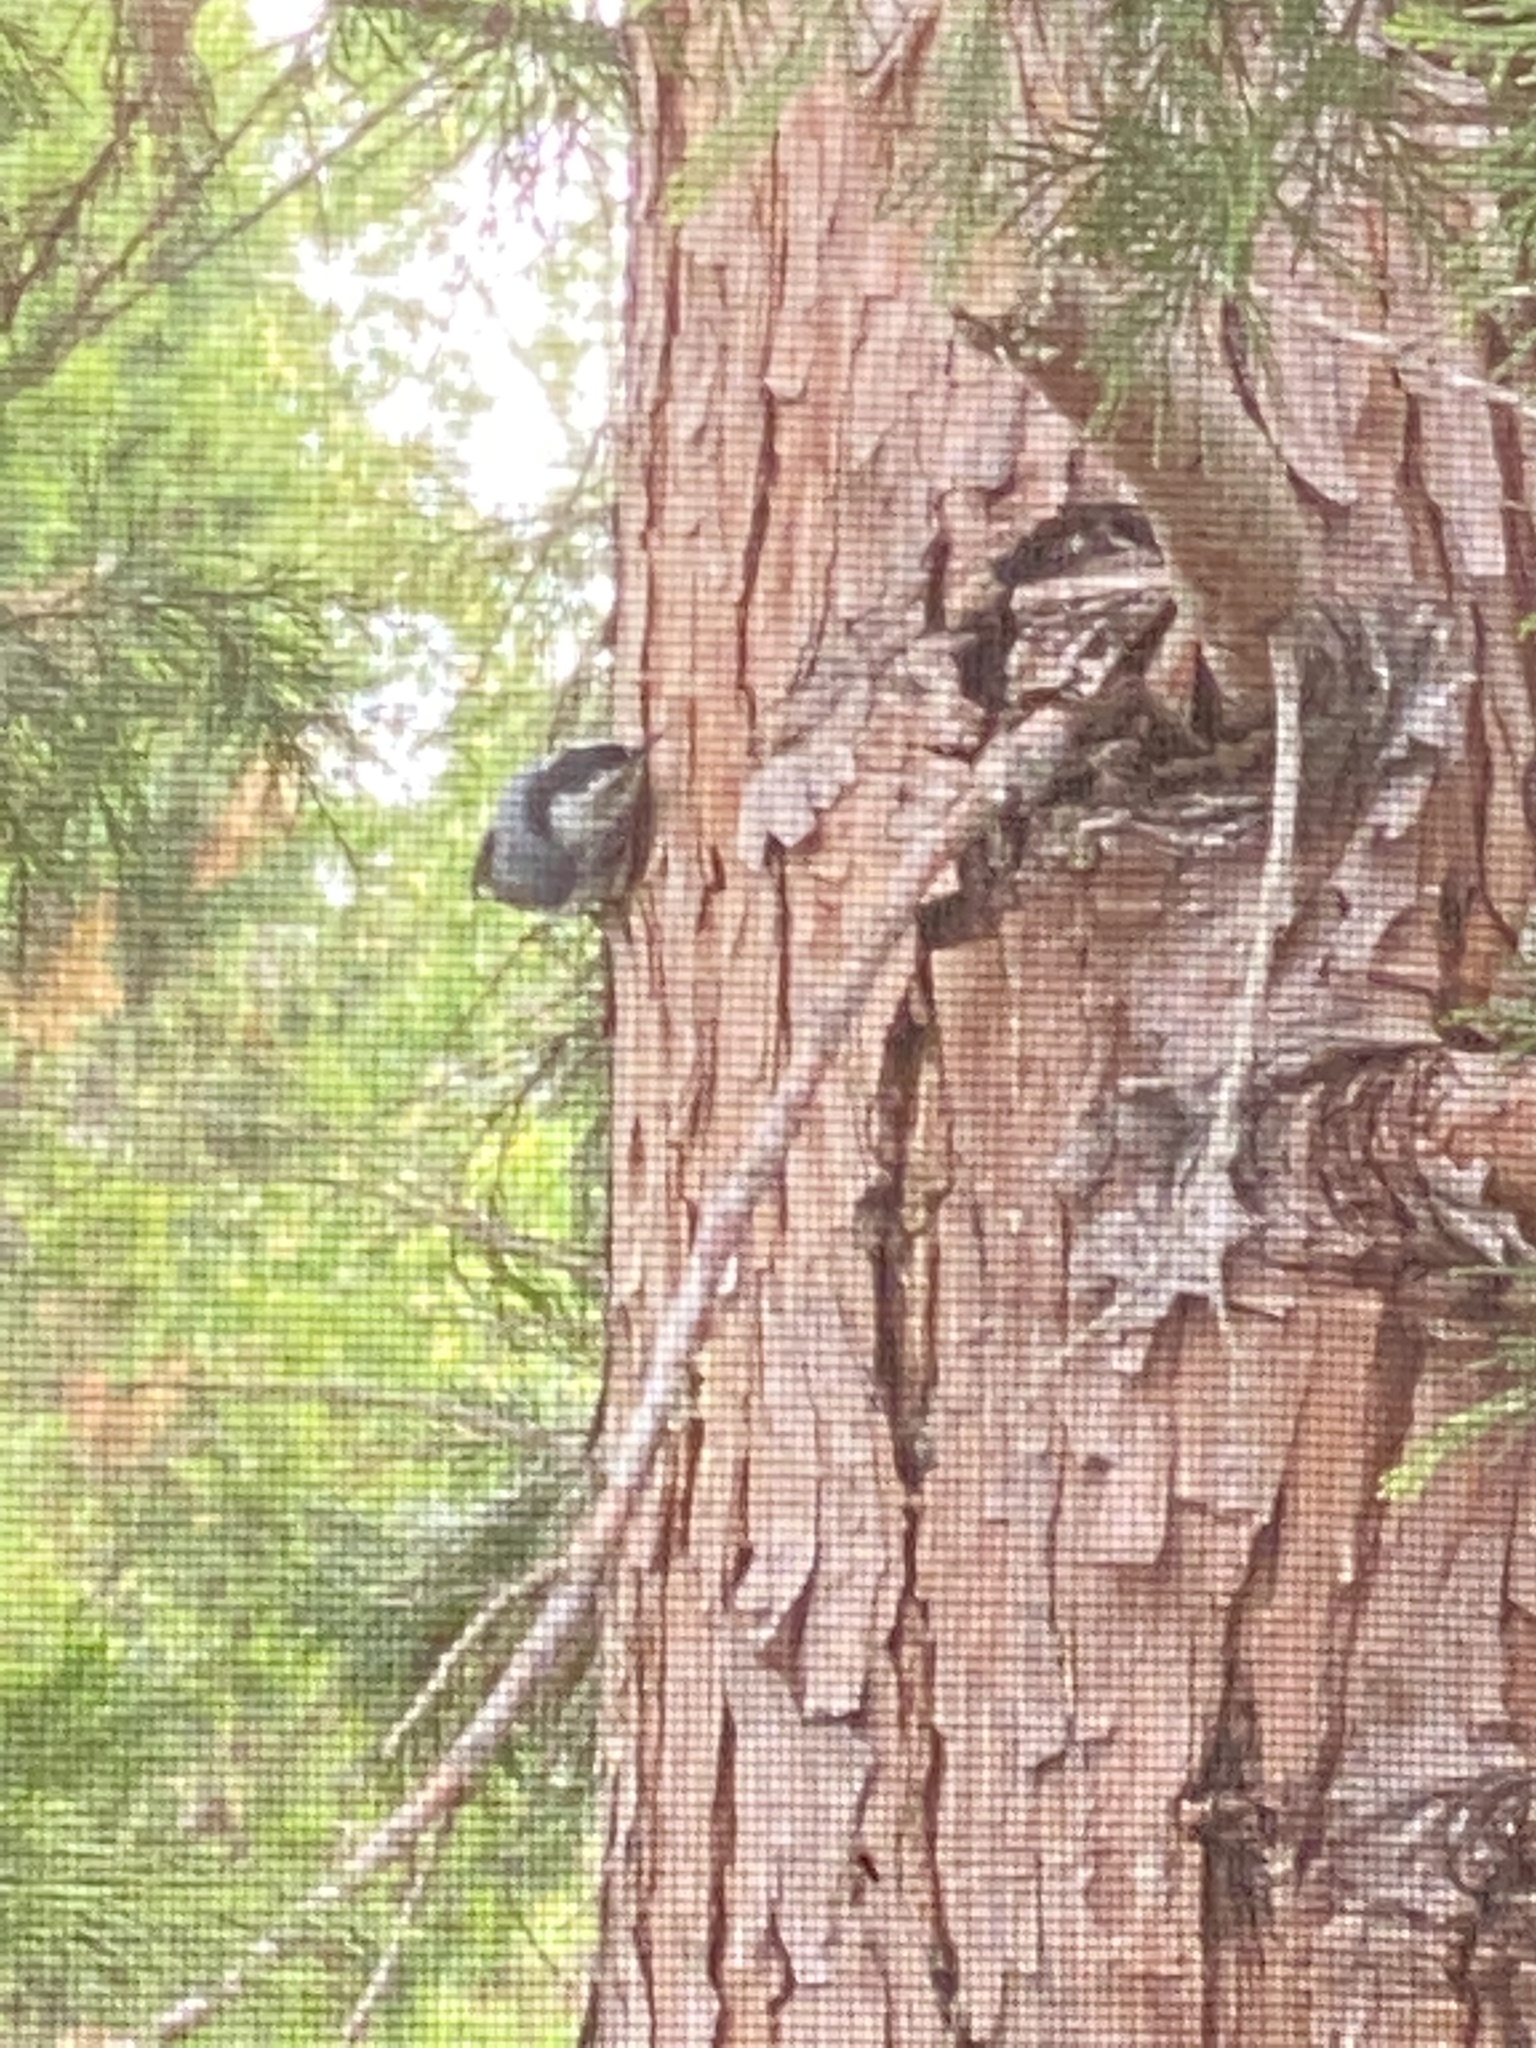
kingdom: Animalia
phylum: Chordata
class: Aves
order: Passeriformes
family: Sittidae
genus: Sitta
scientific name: Sitta carolinensis
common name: White-breasted nuthatch
